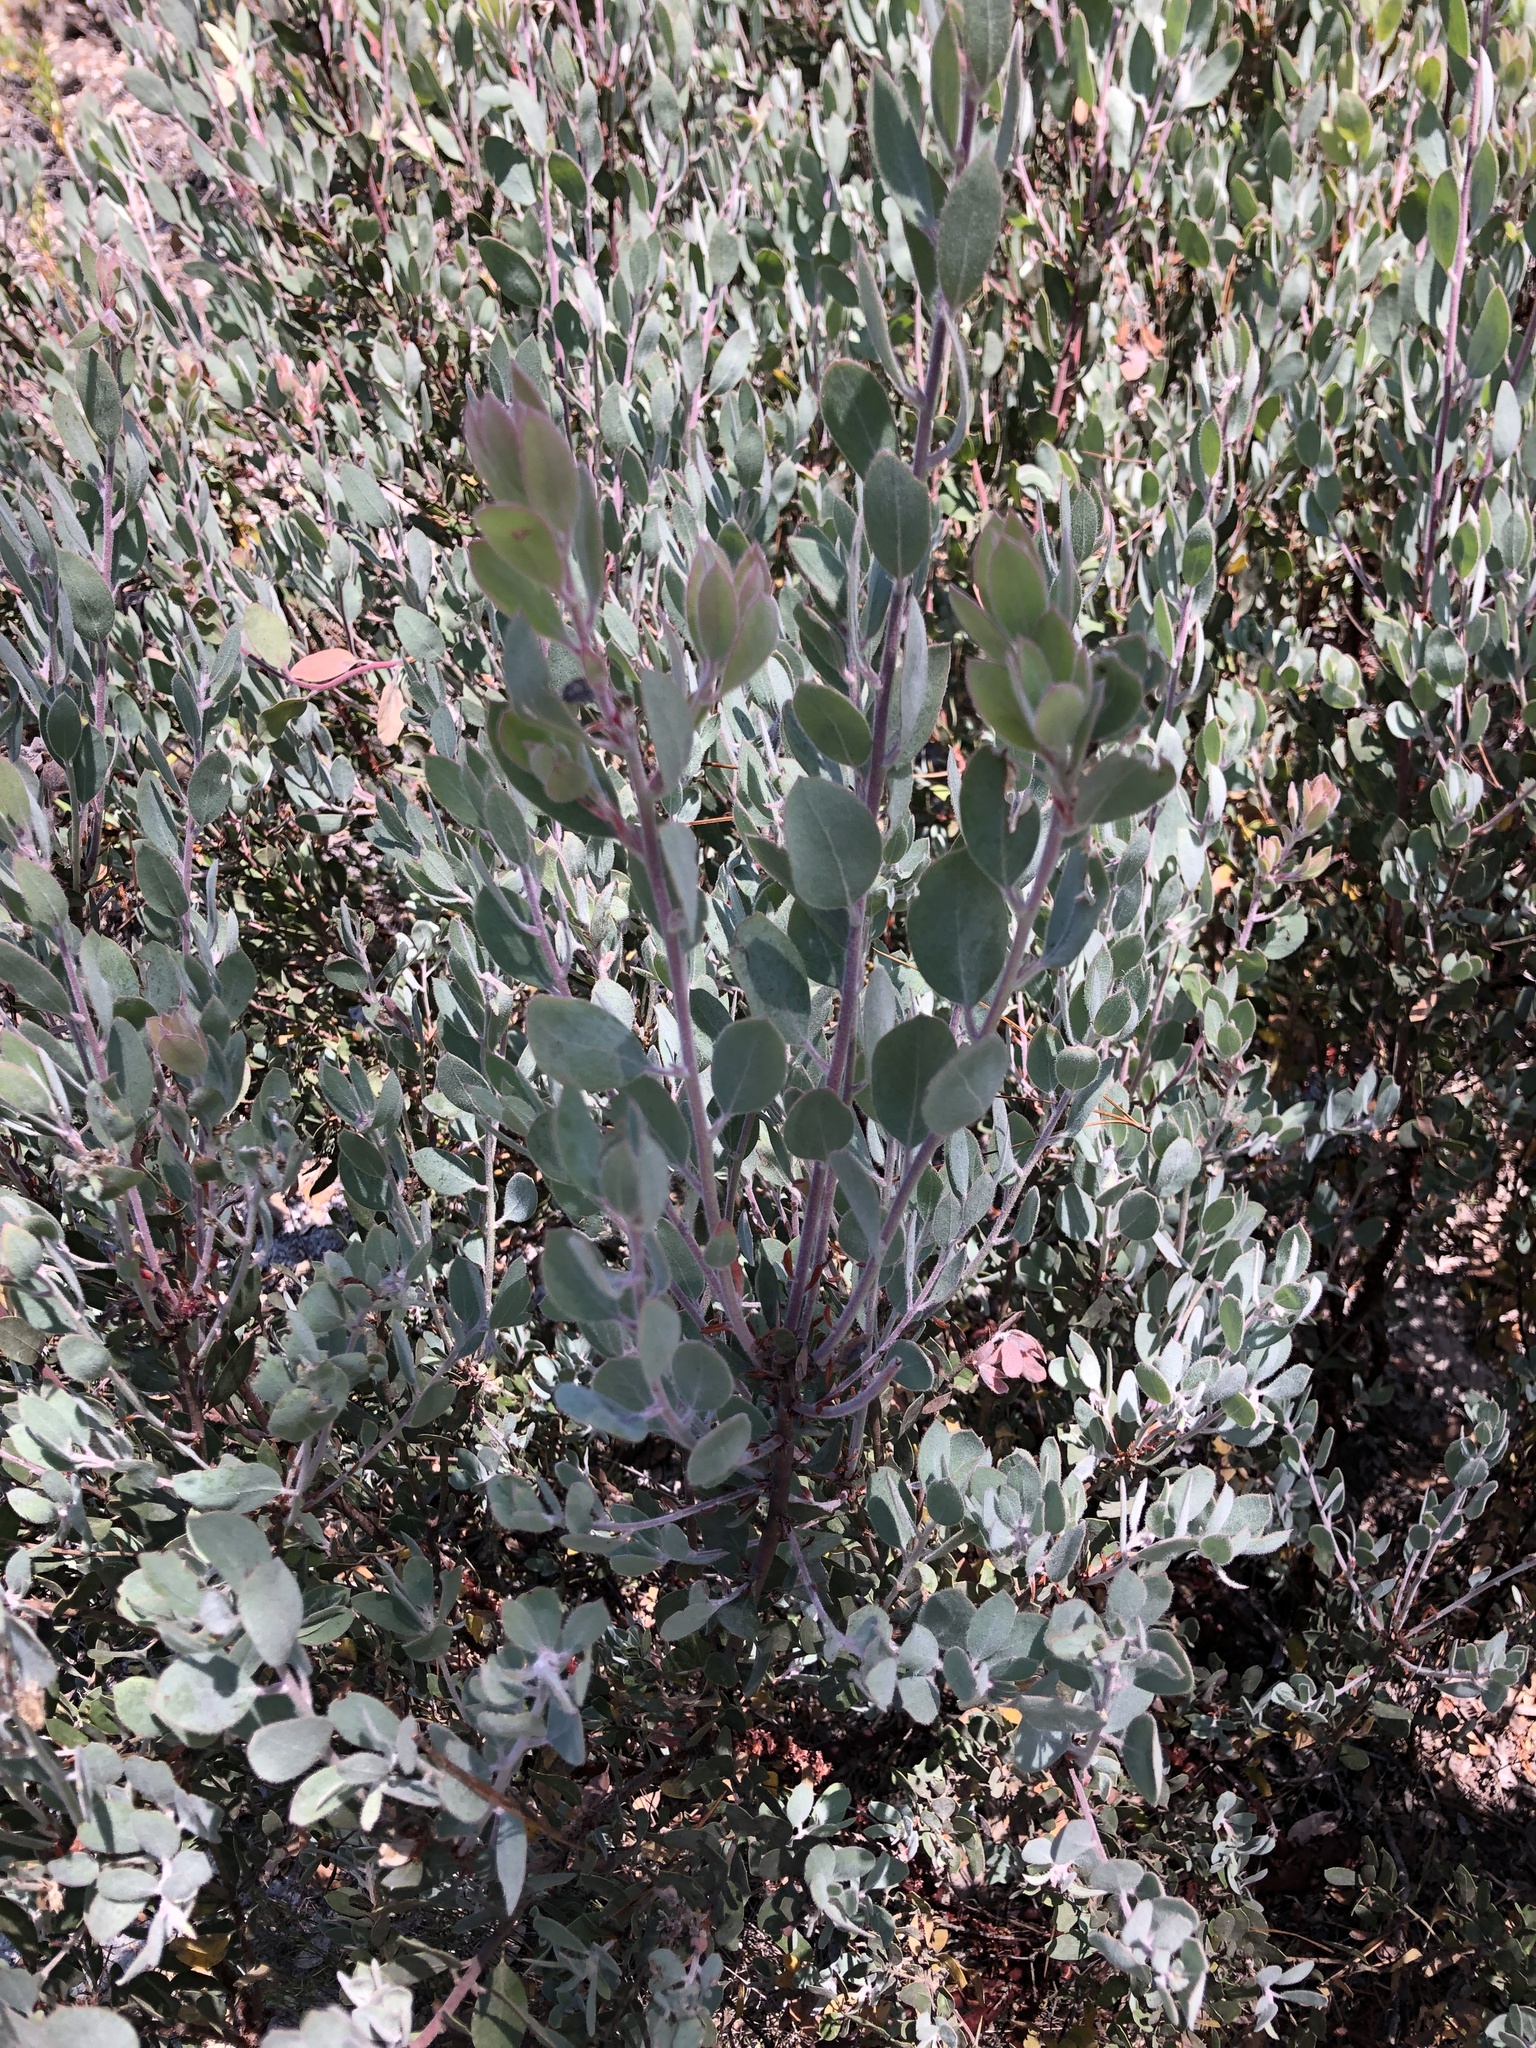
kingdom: Plantae
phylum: Tracheophyta
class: Magnoliopsida
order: Ericales
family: Ericaceae
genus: Arctostaphylos
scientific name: Arctostaphylos silvicola
